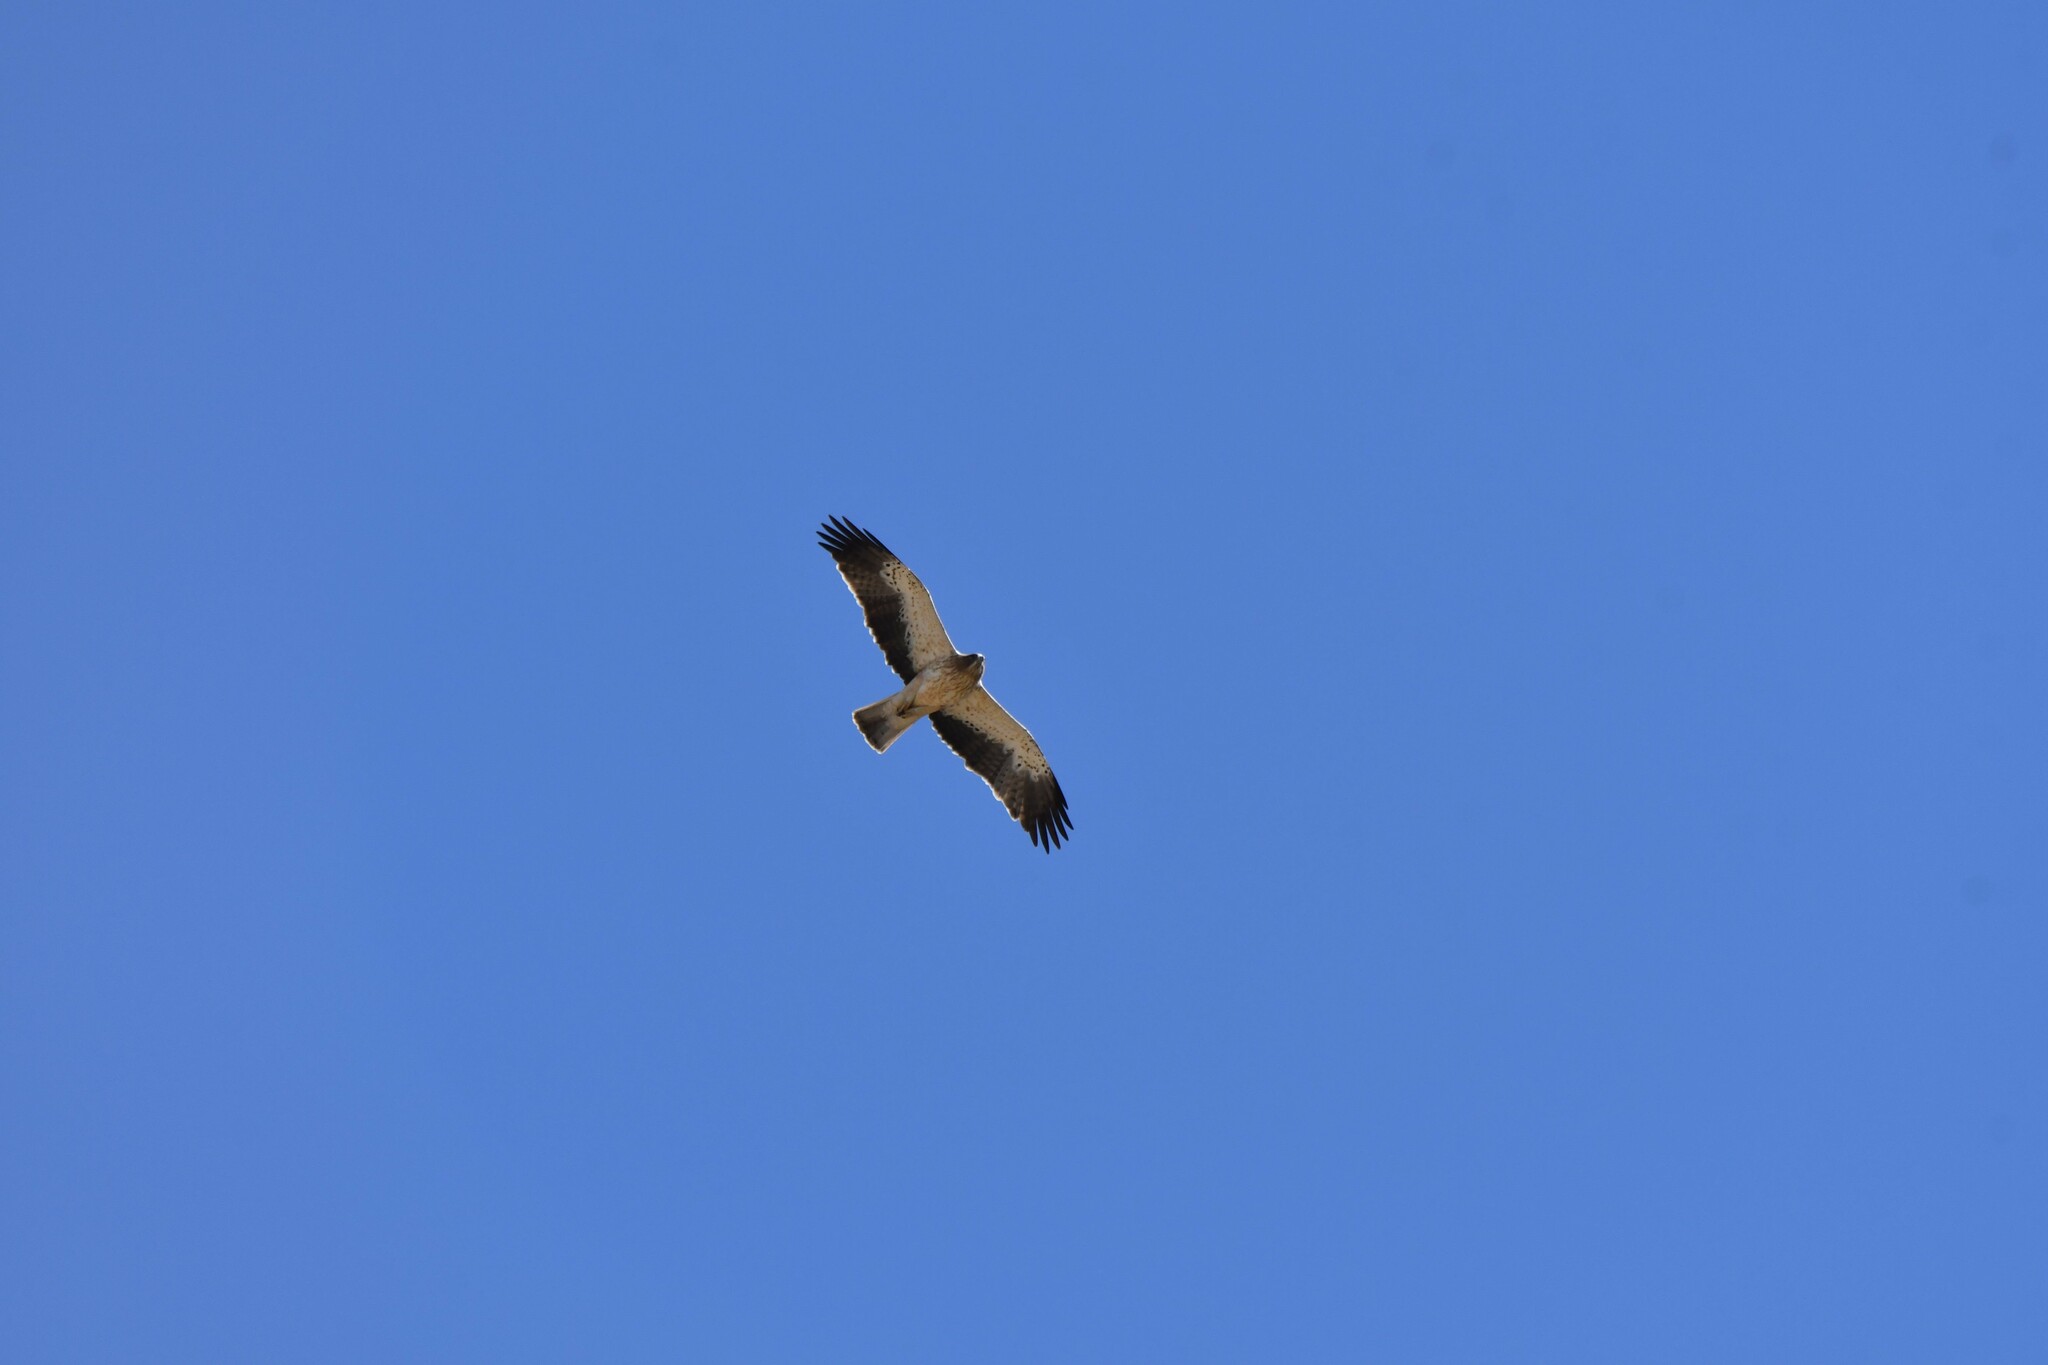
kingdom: Animalia
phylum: Chordata
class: Aves
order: Accipitriformes
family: Accipitridae
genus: Hieraaetus
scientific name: Hieraaetus pennatus
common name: Booted eagle
